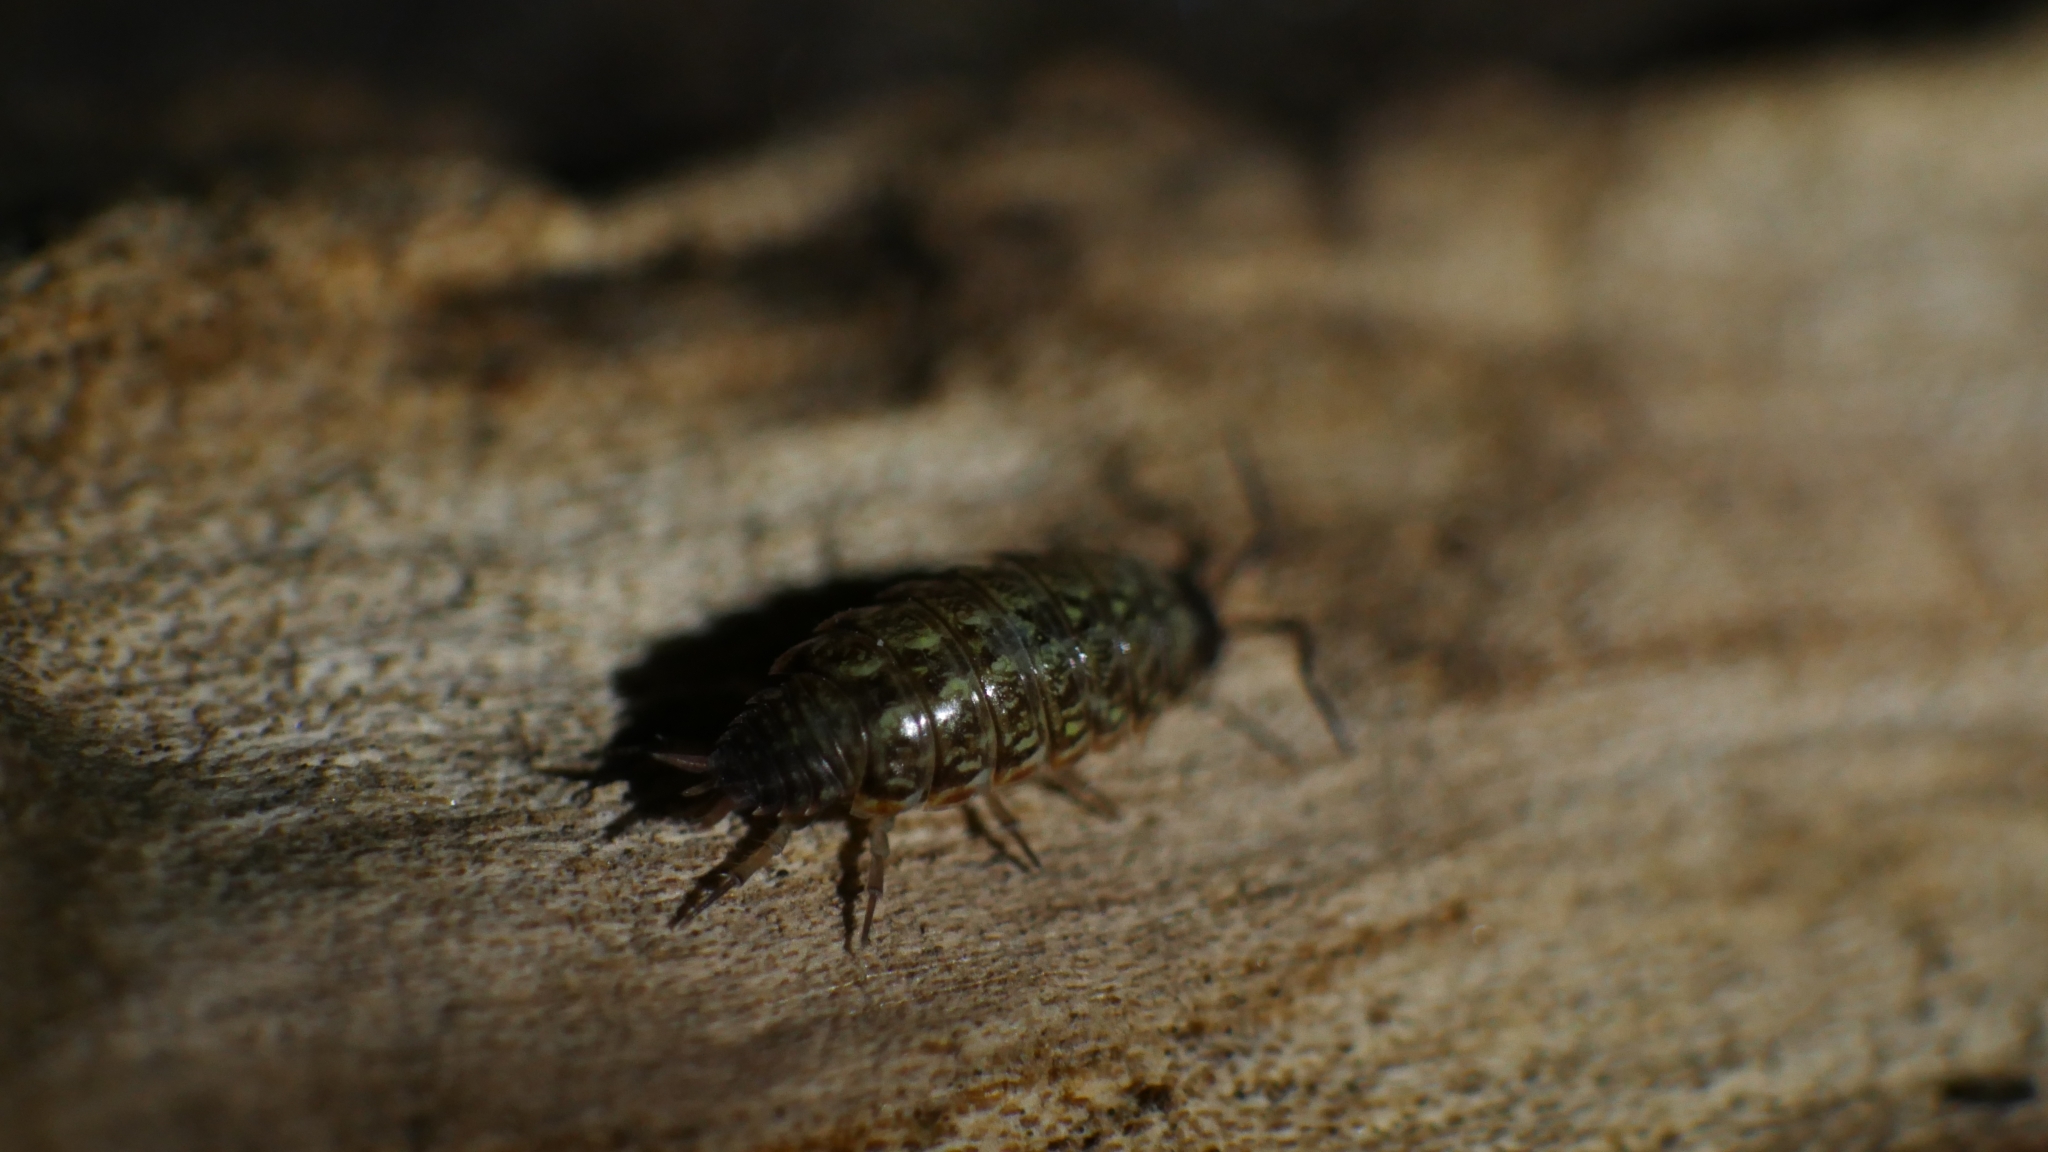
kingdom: Animalia
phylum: Arthropoda
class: Malacostraca
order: Isopoda
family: Philosciidae
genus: Philoscia
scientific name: Philoscia muscorum
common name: Common striped woodlouse
